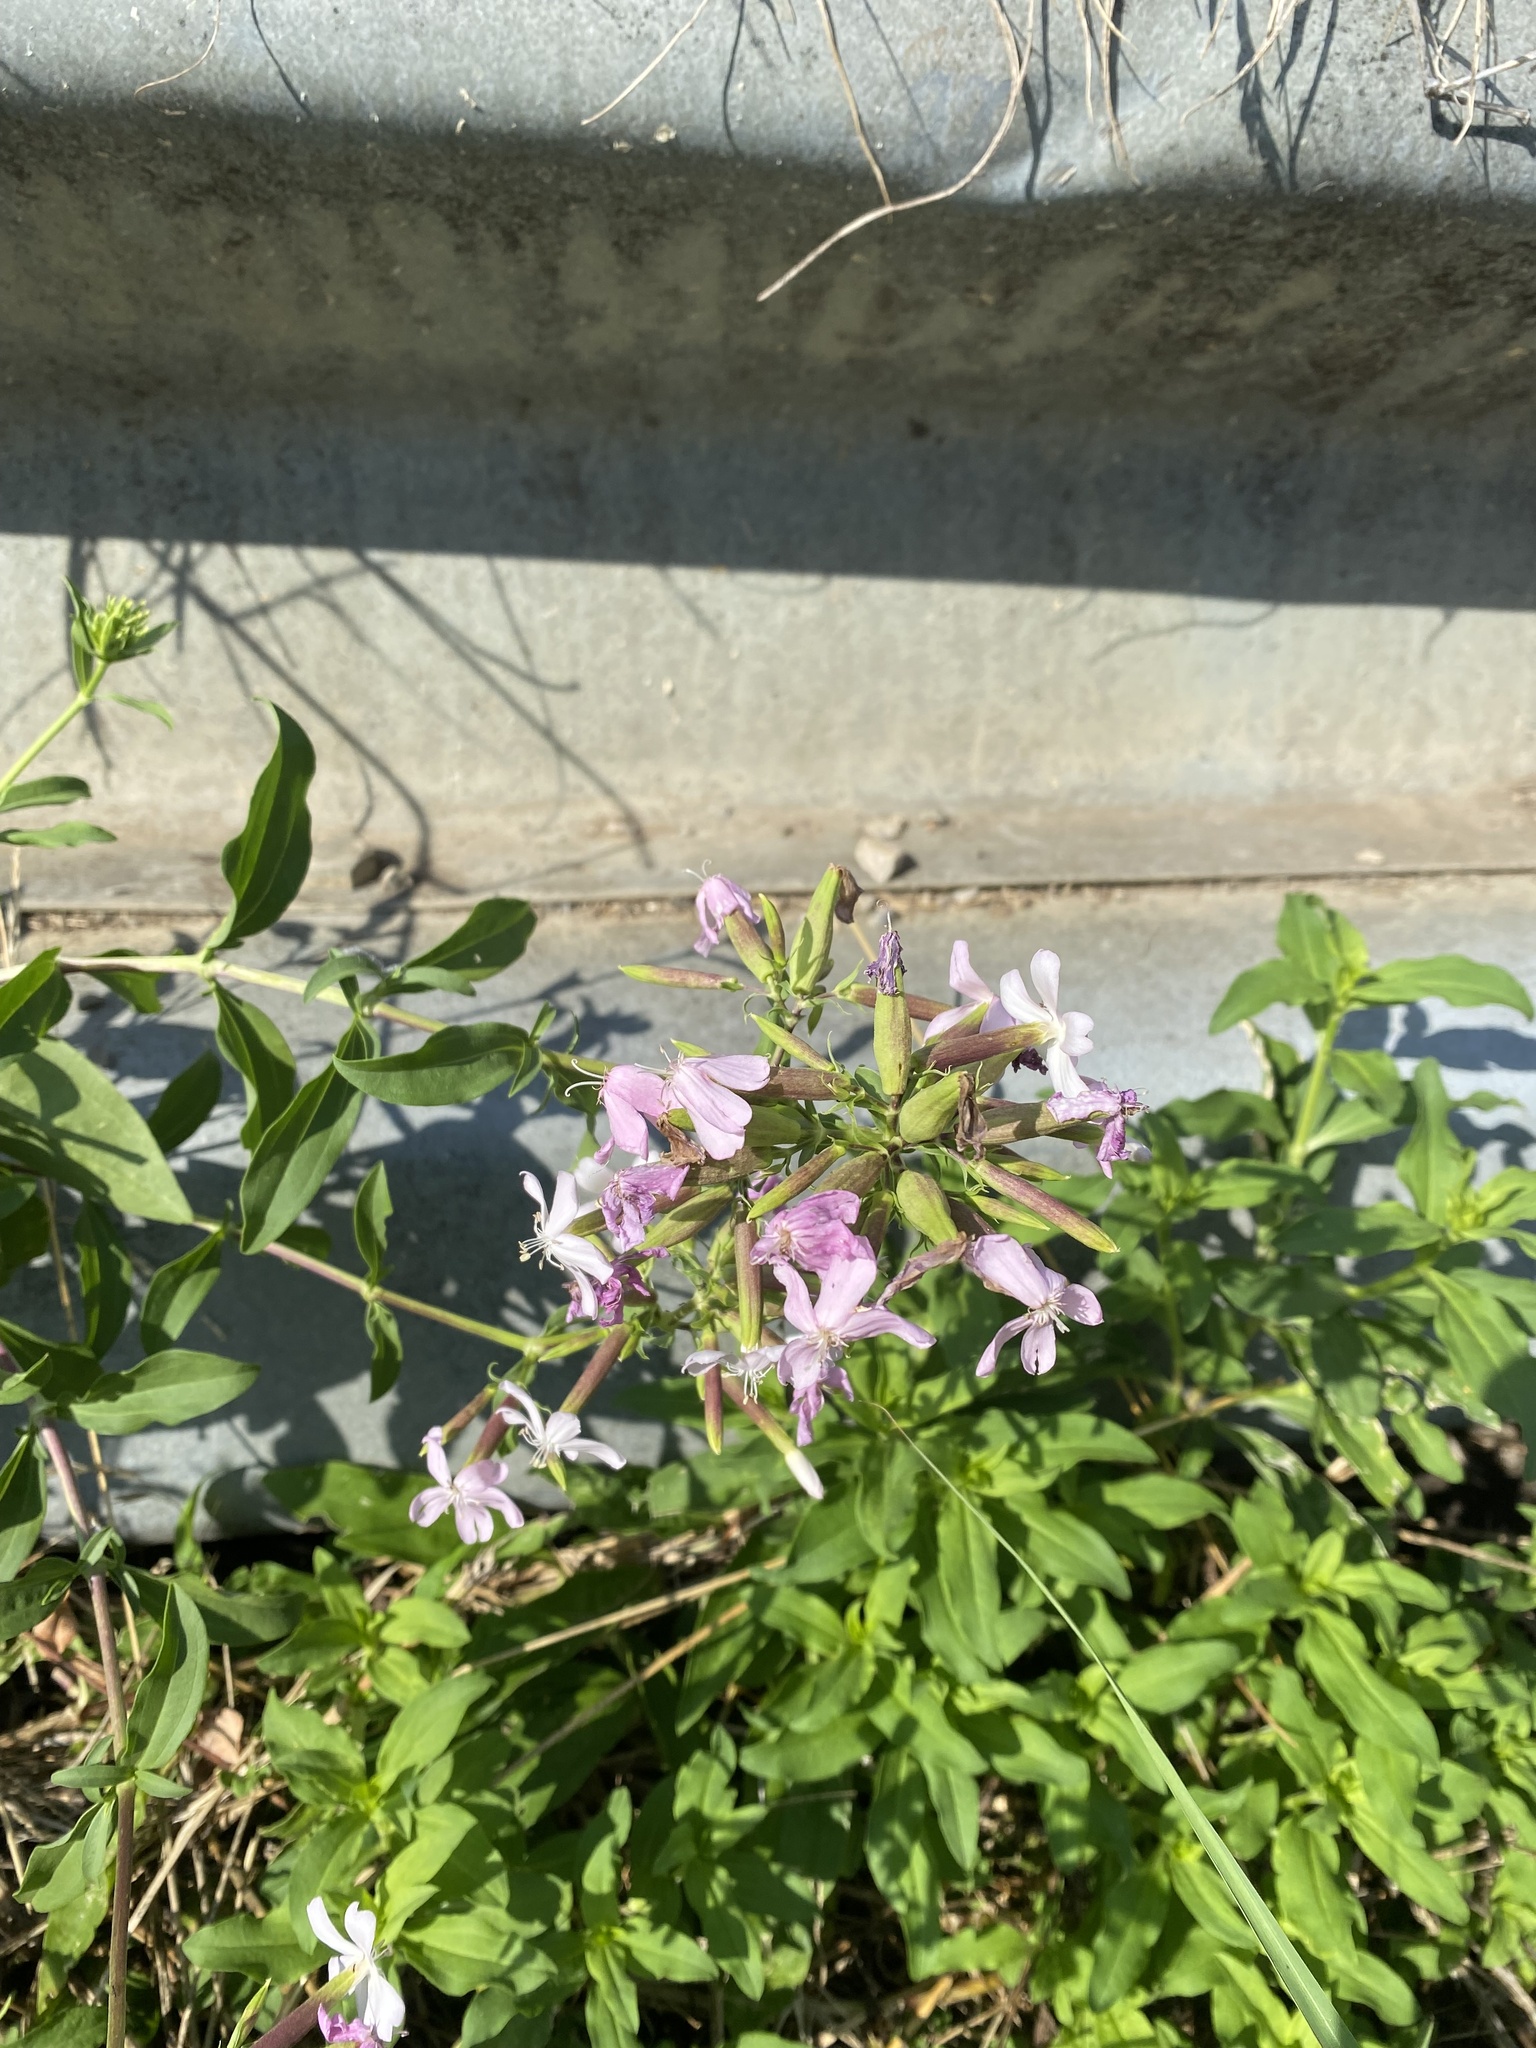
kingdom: Plantae
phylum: Tracheophyta
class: Magnoliopsida
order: Caryophyllales
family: Caryophyllaceae
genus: Saponaria
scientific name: Saponaria officinalis
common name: Soapwort
